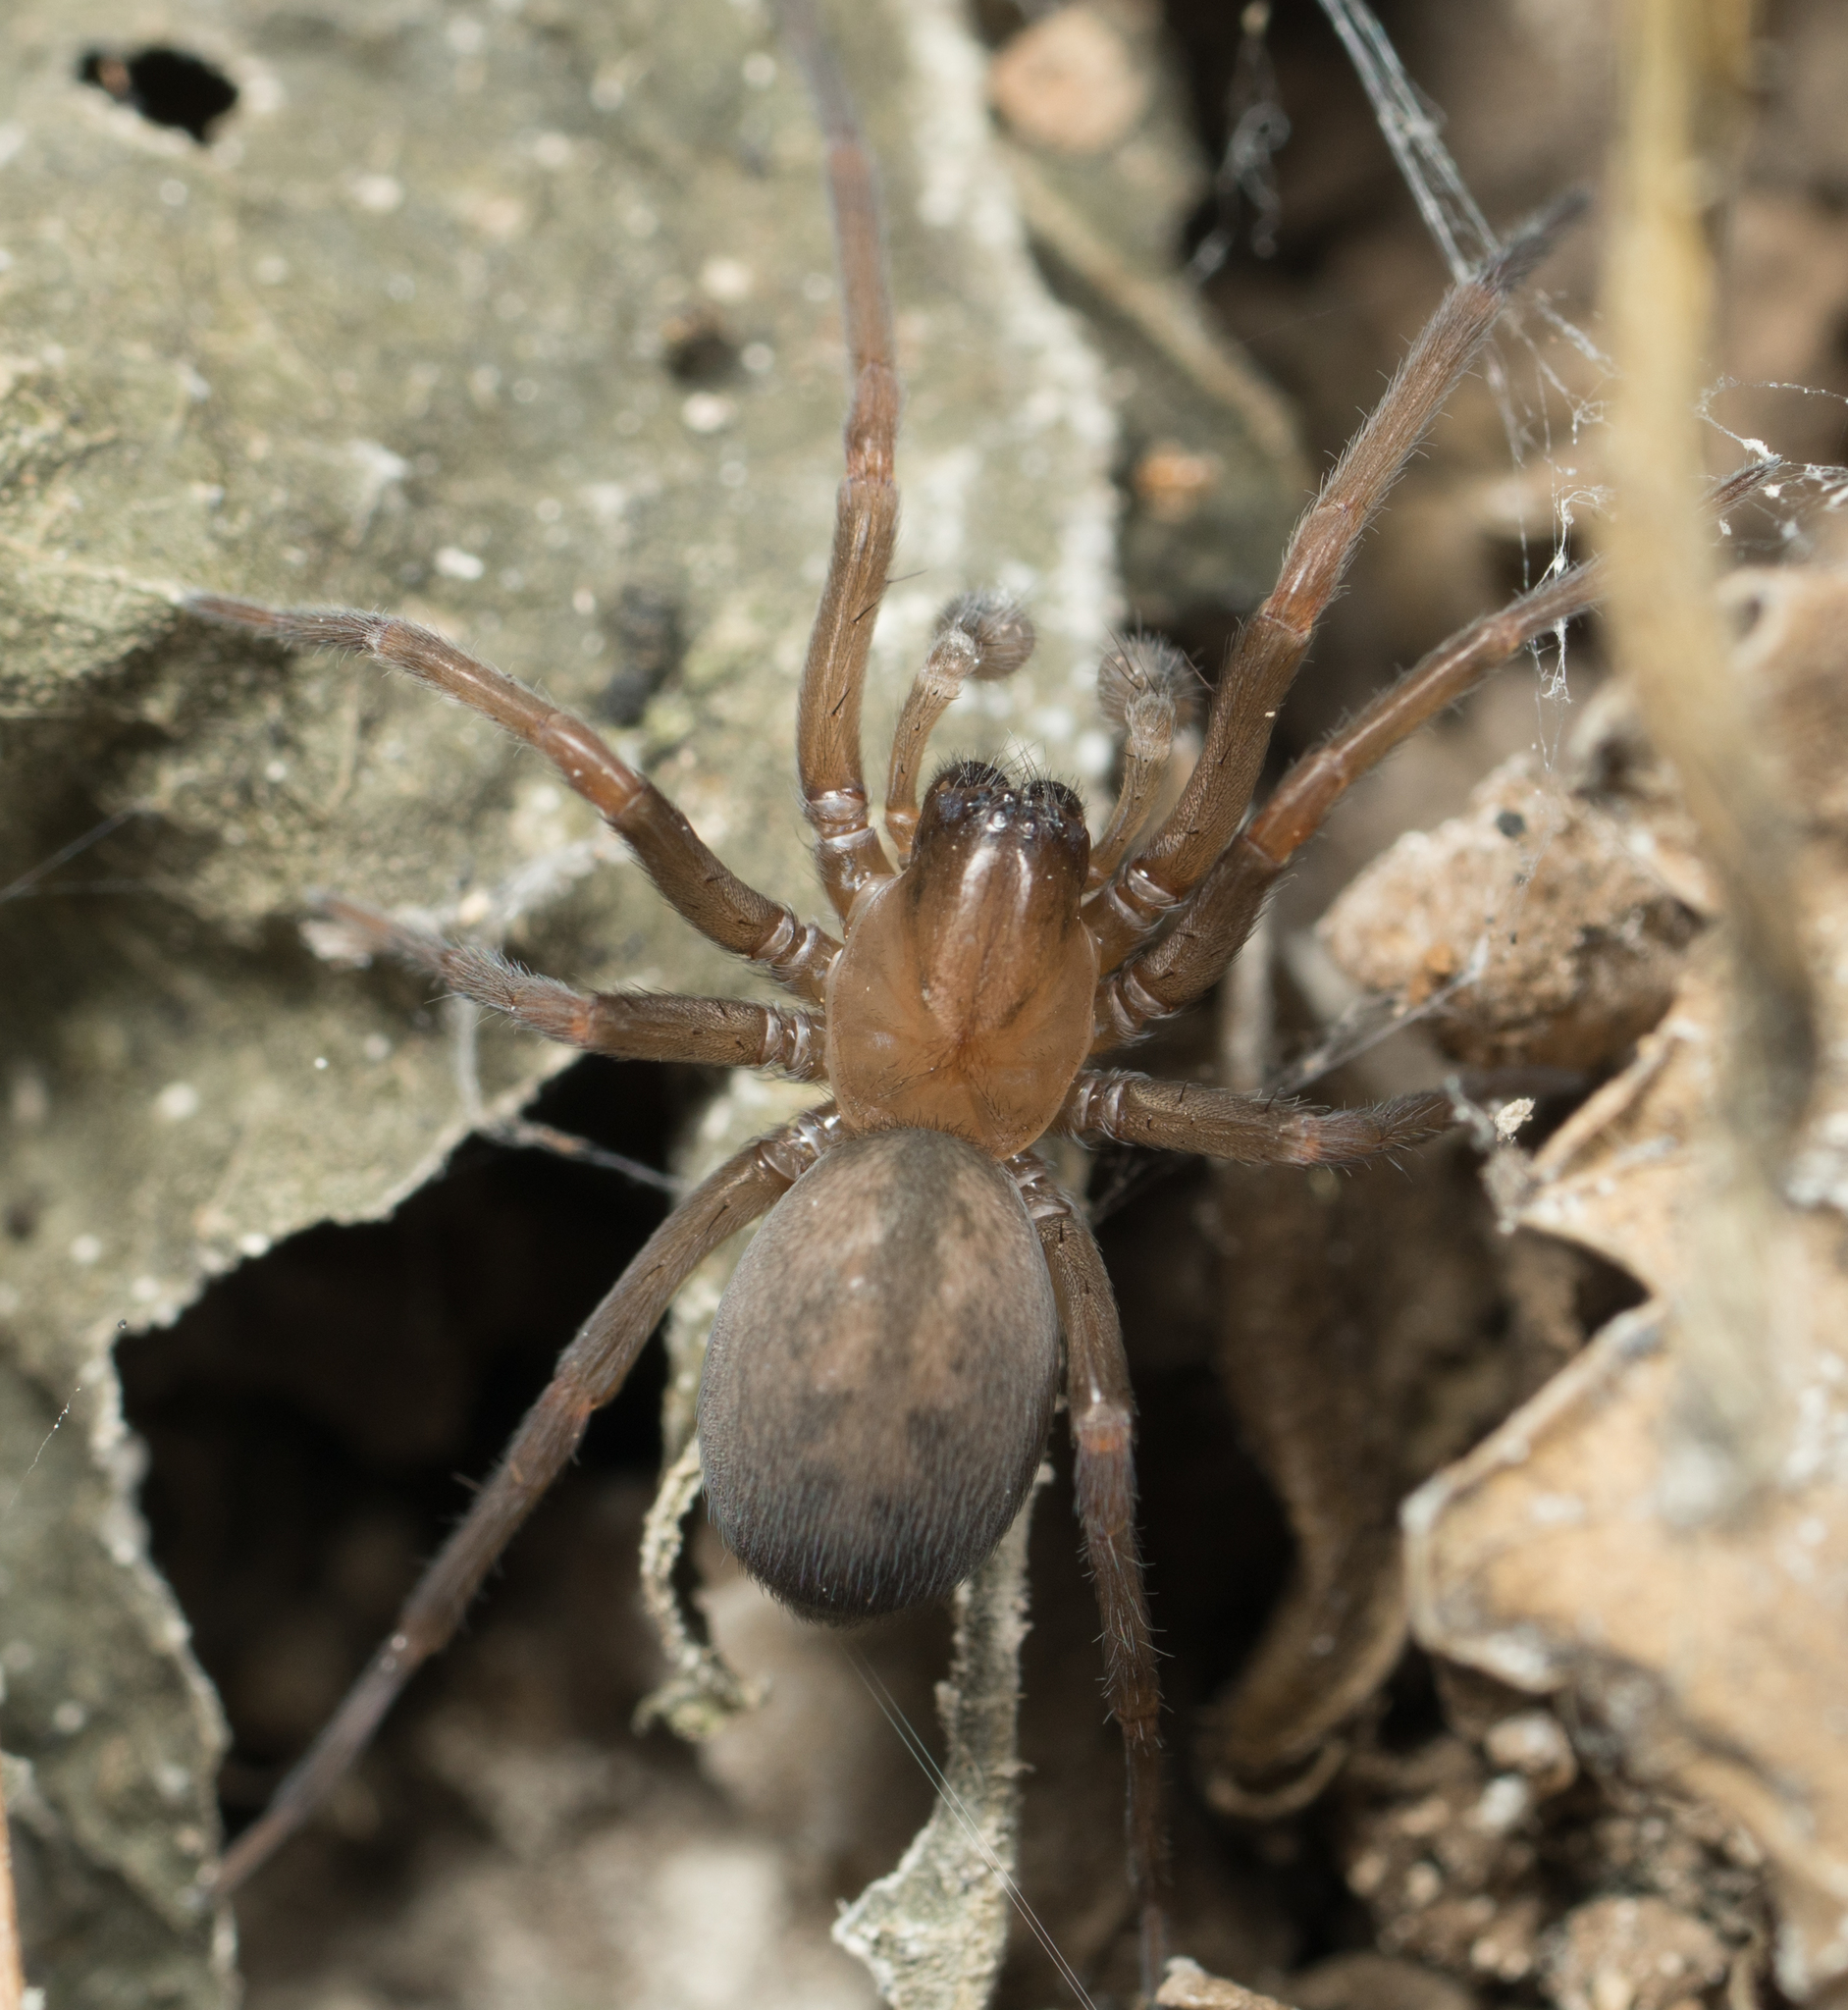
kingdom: Animalia
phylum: Arthropoda
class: Arachnida
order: Araneae
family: Desidae
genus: Metaltella
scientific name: Metaltella simoni
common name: Cribellate spider
